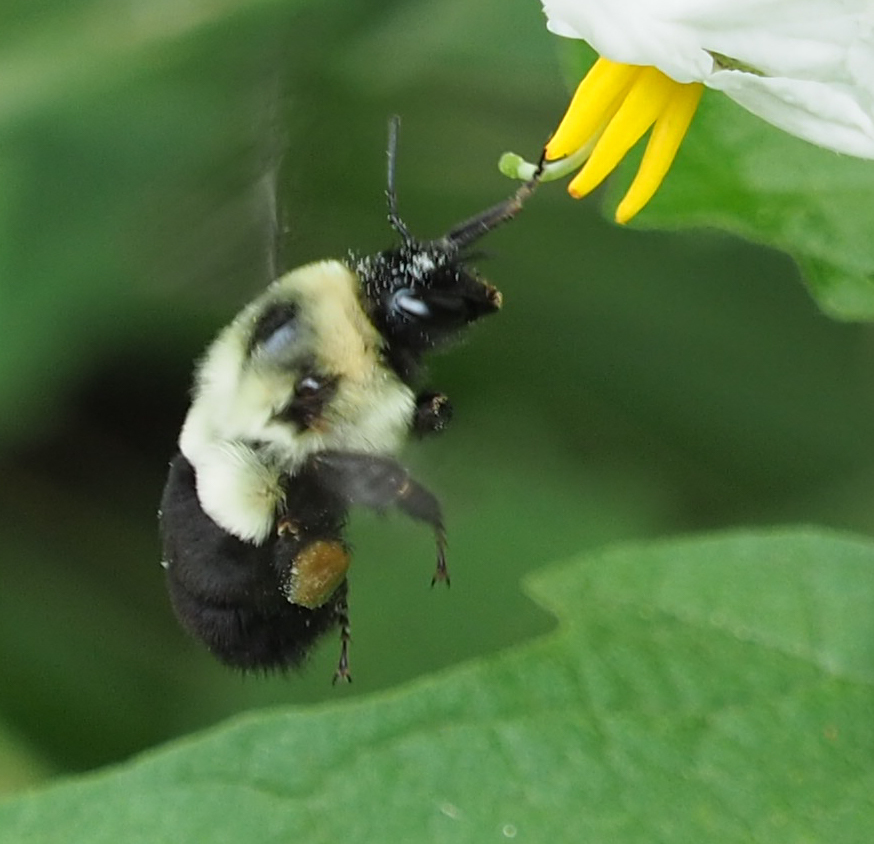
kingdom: Animalia
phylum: Arthropoda
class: Insecta
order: Hymenoptera
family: Apidae
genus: Bombus
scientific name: Bombus impatiens
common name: Common eastern bumble bee
